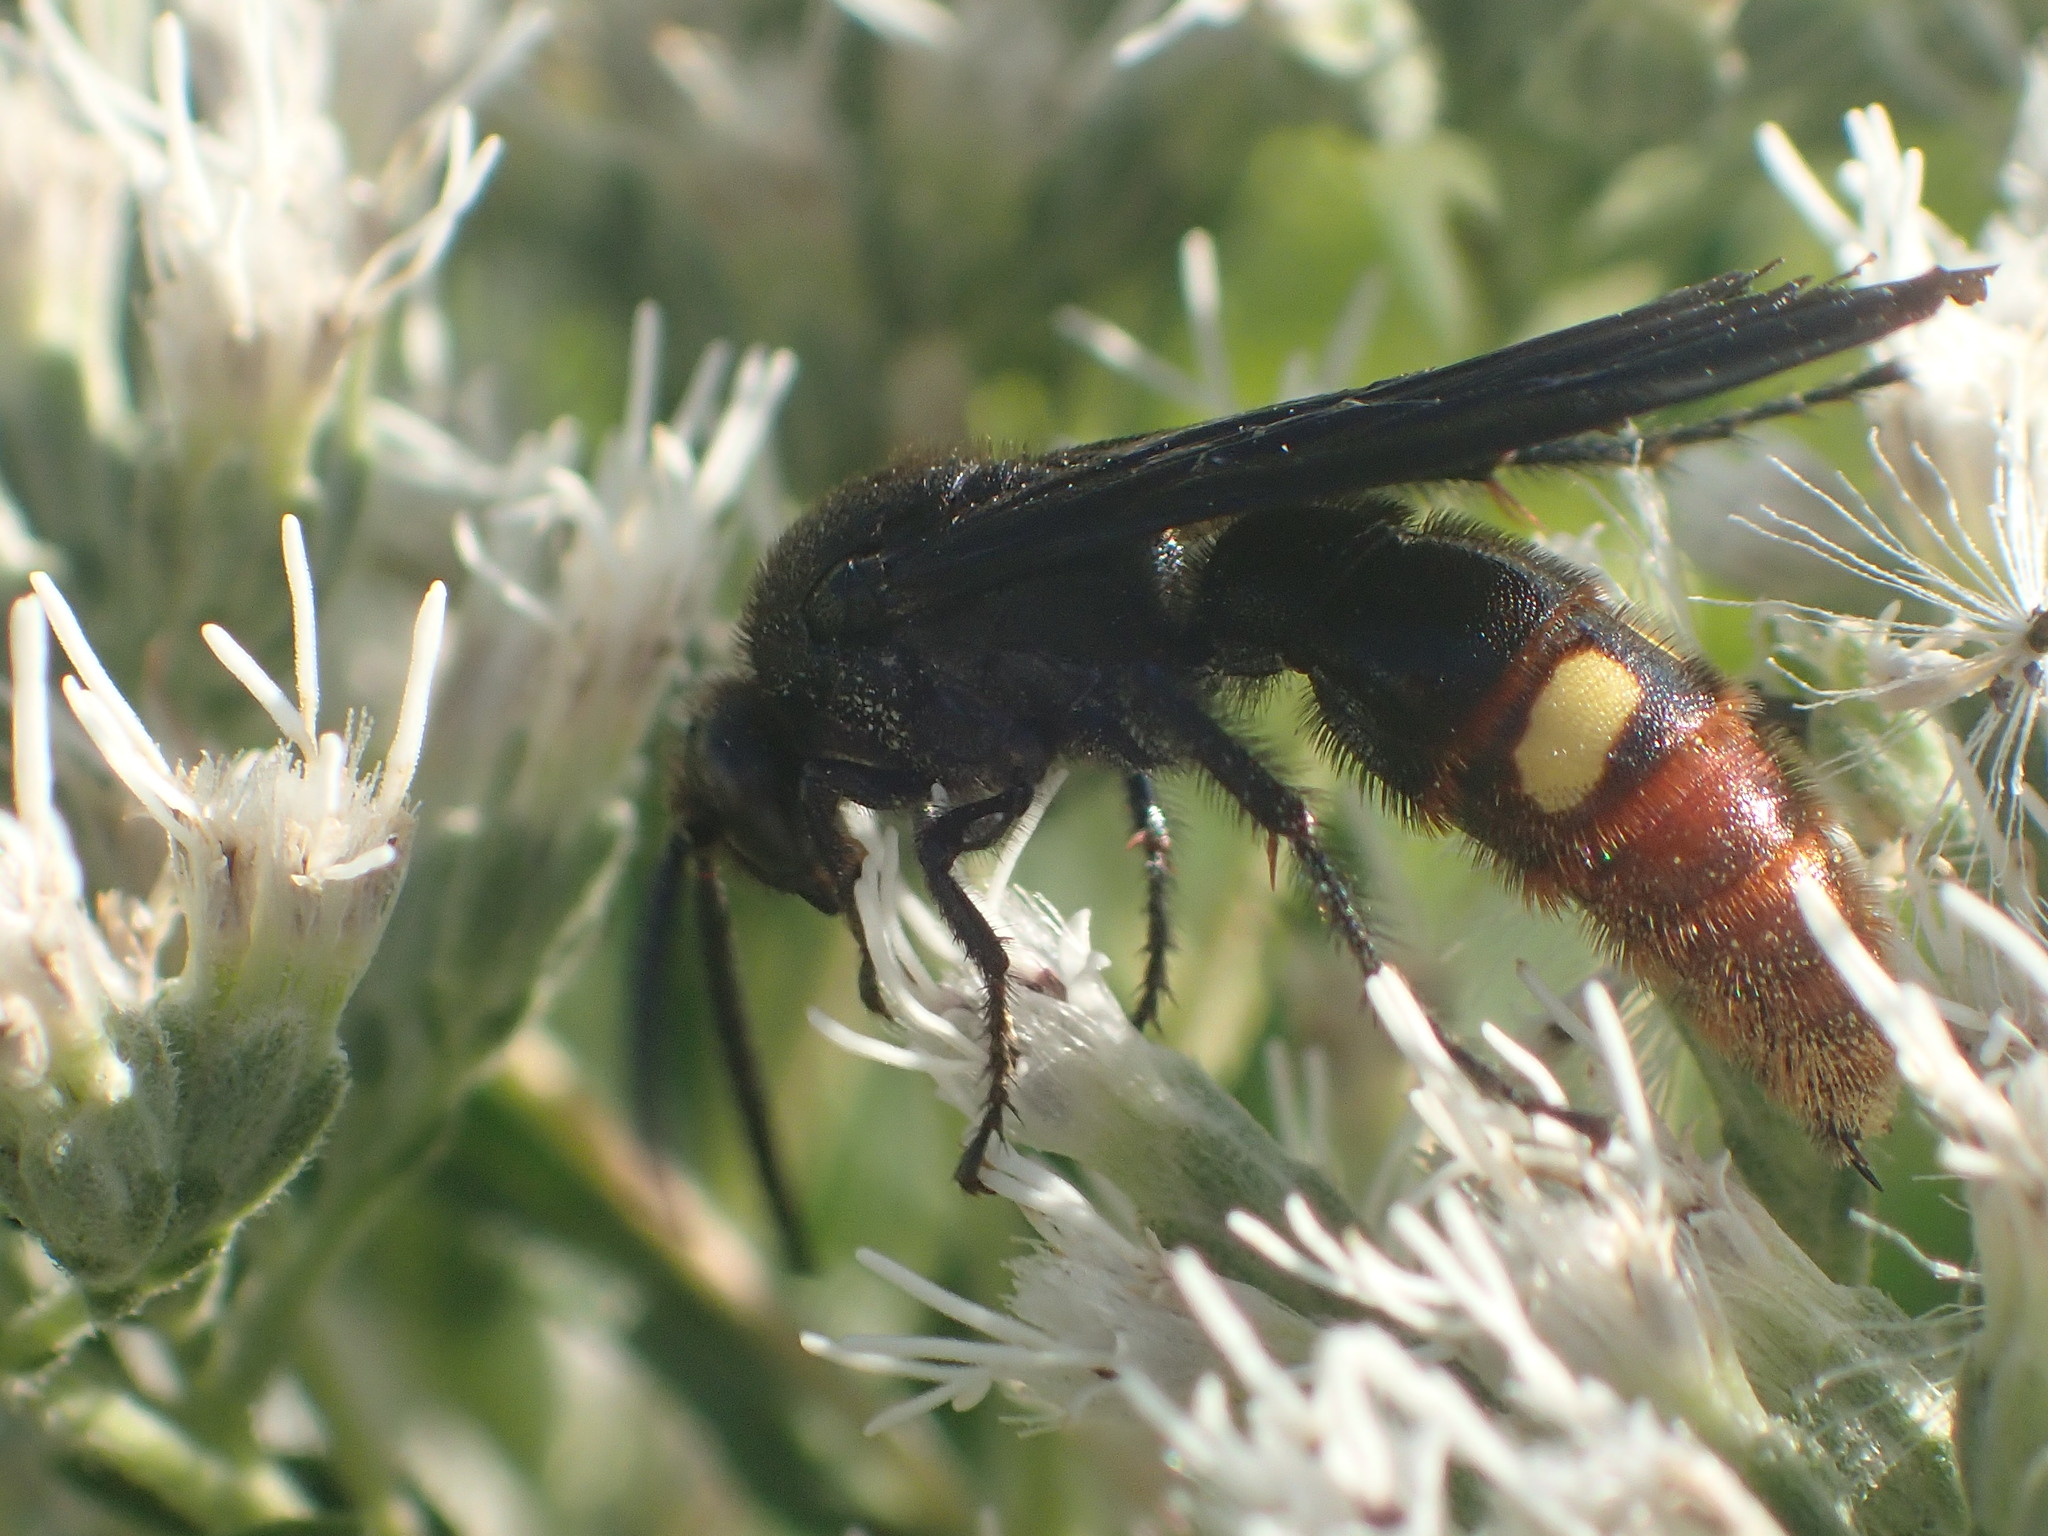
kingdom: Animalia
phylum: Arthropoda
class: Insecta
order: Hymenoptera
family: Scoliidae
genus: Scolia
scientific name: Scolia dubia
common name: Blue-winged scoliid wasp
